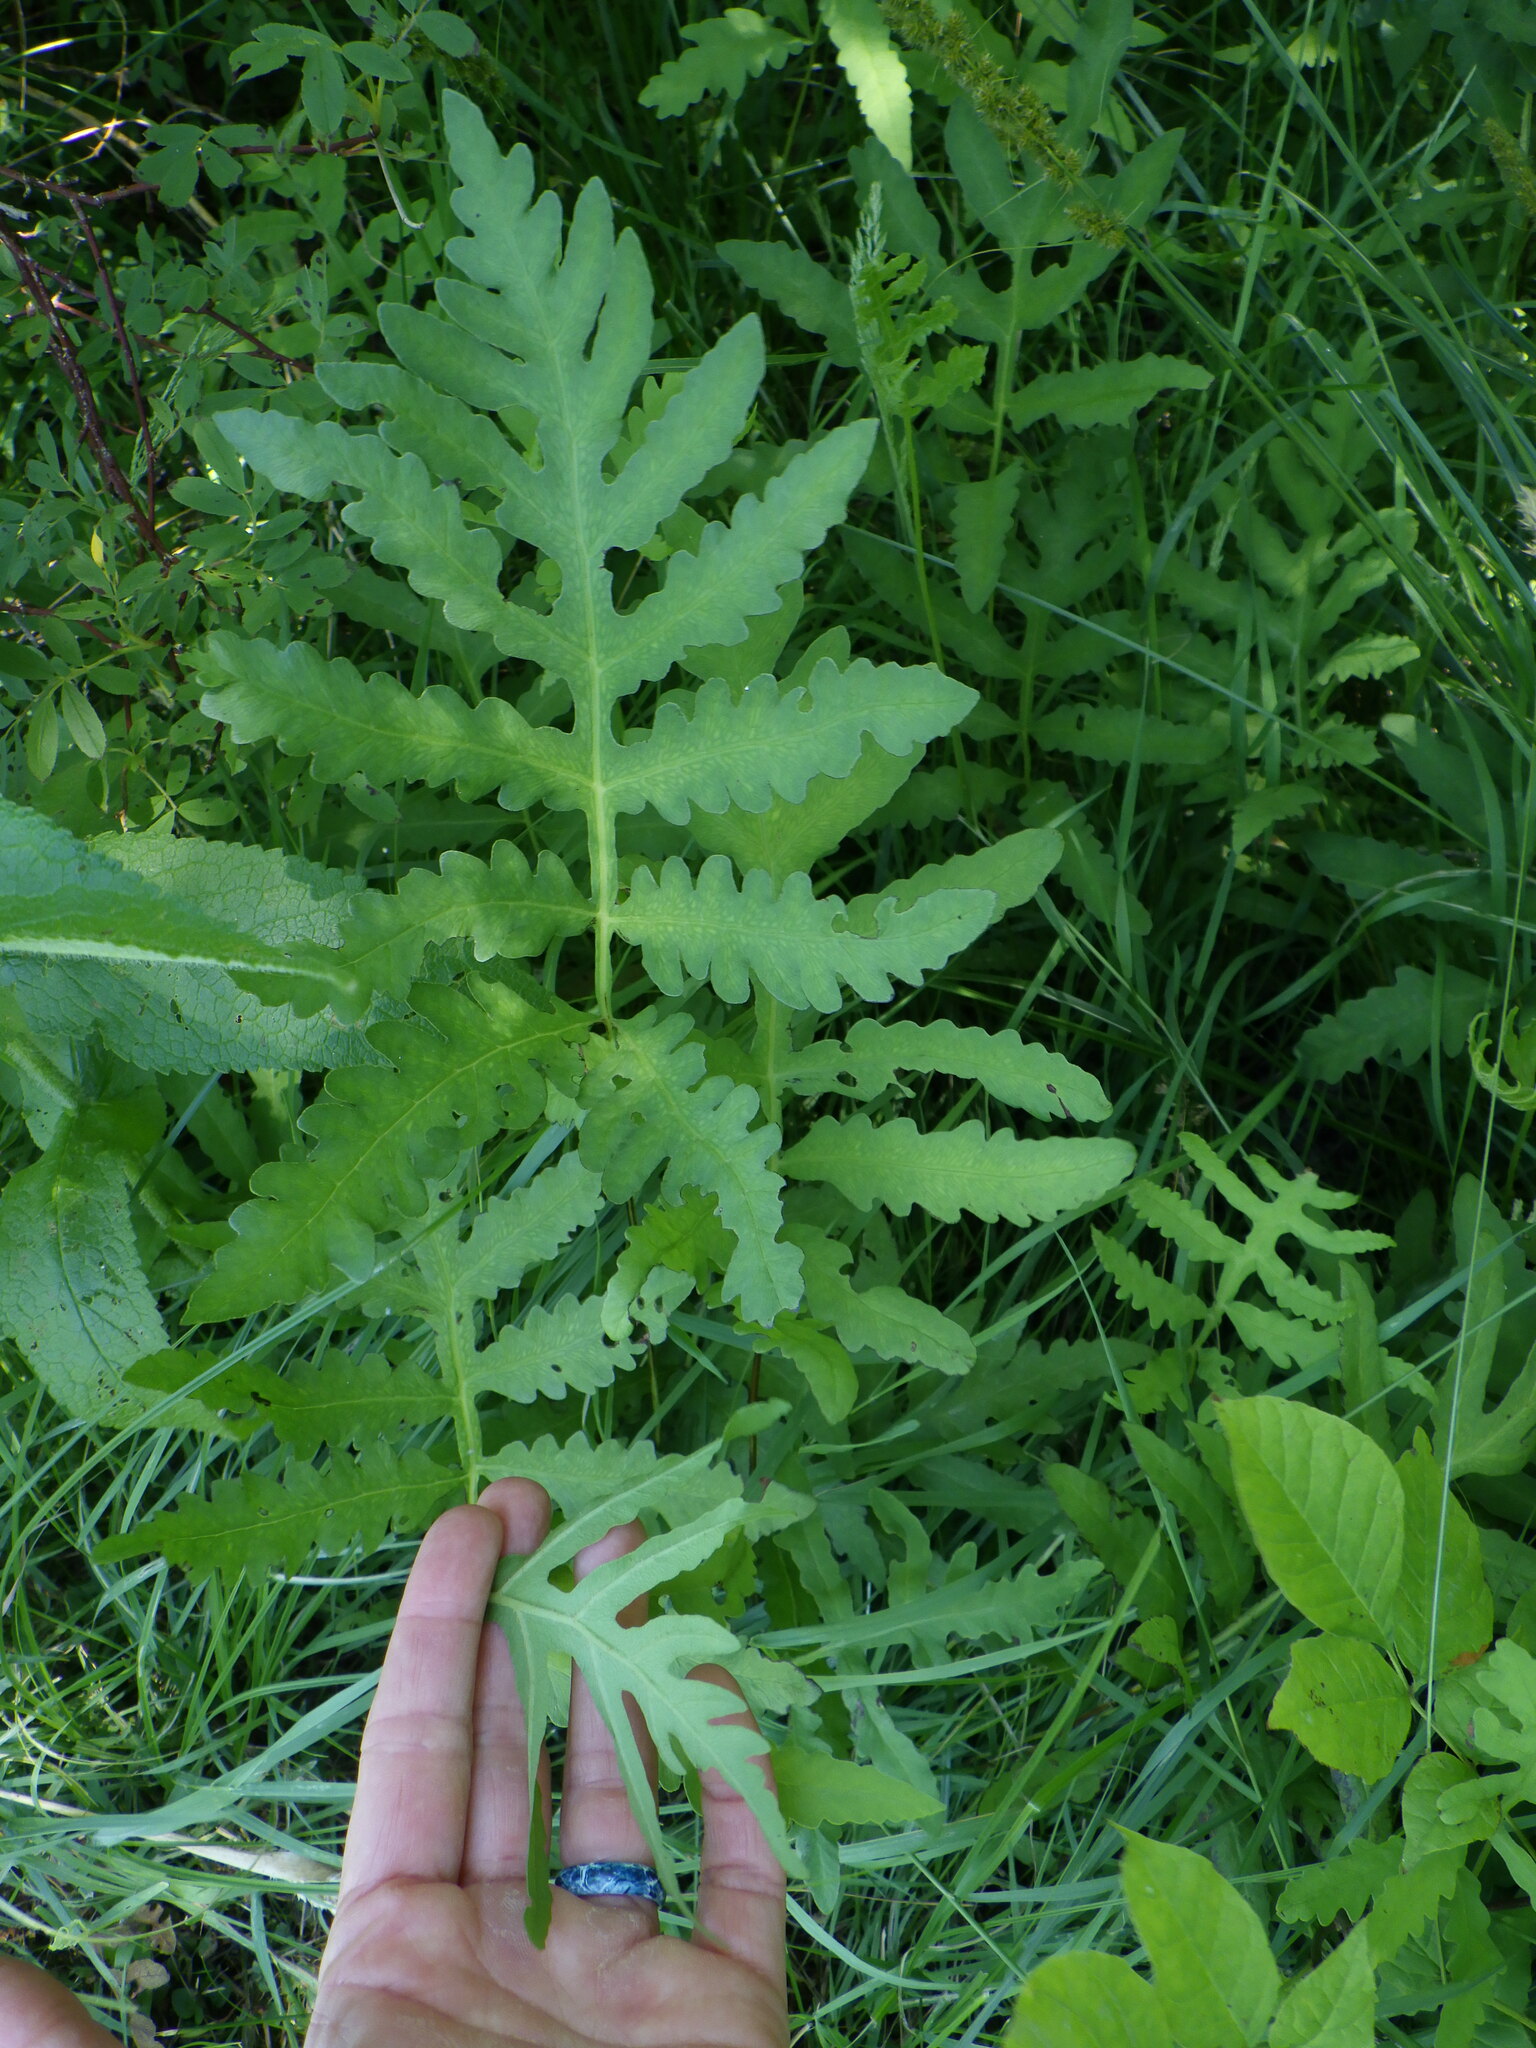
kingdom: Plantae
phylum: Tracheophyta
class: Polypodiopsida
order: Polypodiales
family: Onocleaceae
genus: Onoclea
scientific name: Onoclea sensibilis
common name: Sensitive fern
